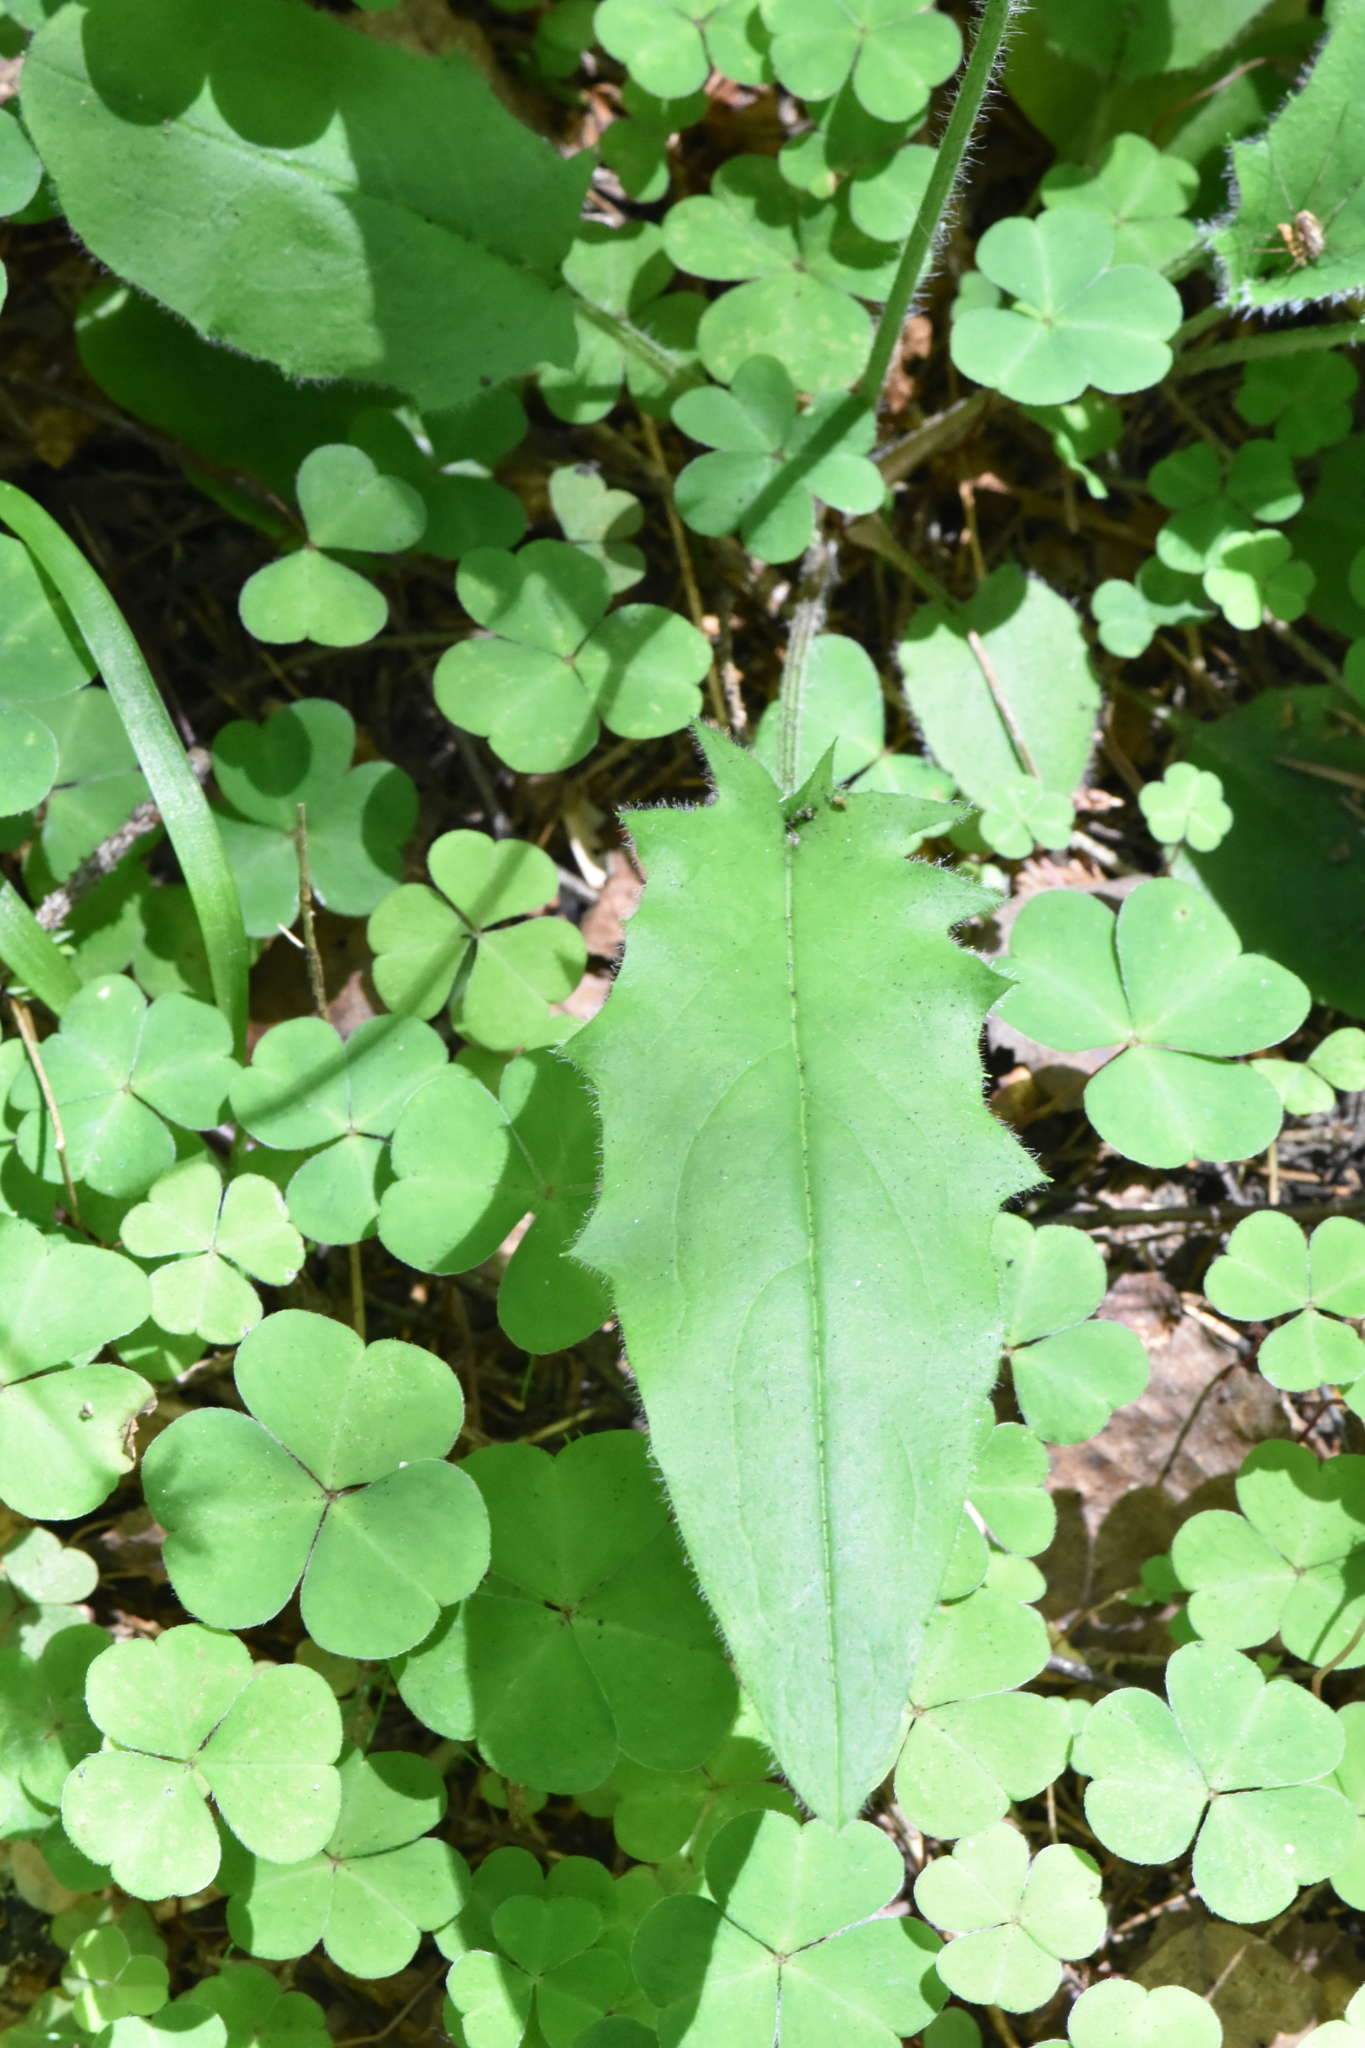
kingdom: Plantae
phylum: Tracheophyta
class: Magnoliopsida
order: Asterales
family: Asteraceae
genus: Hieracium
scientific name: Hieracium murorum
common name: Wall hawkweed
